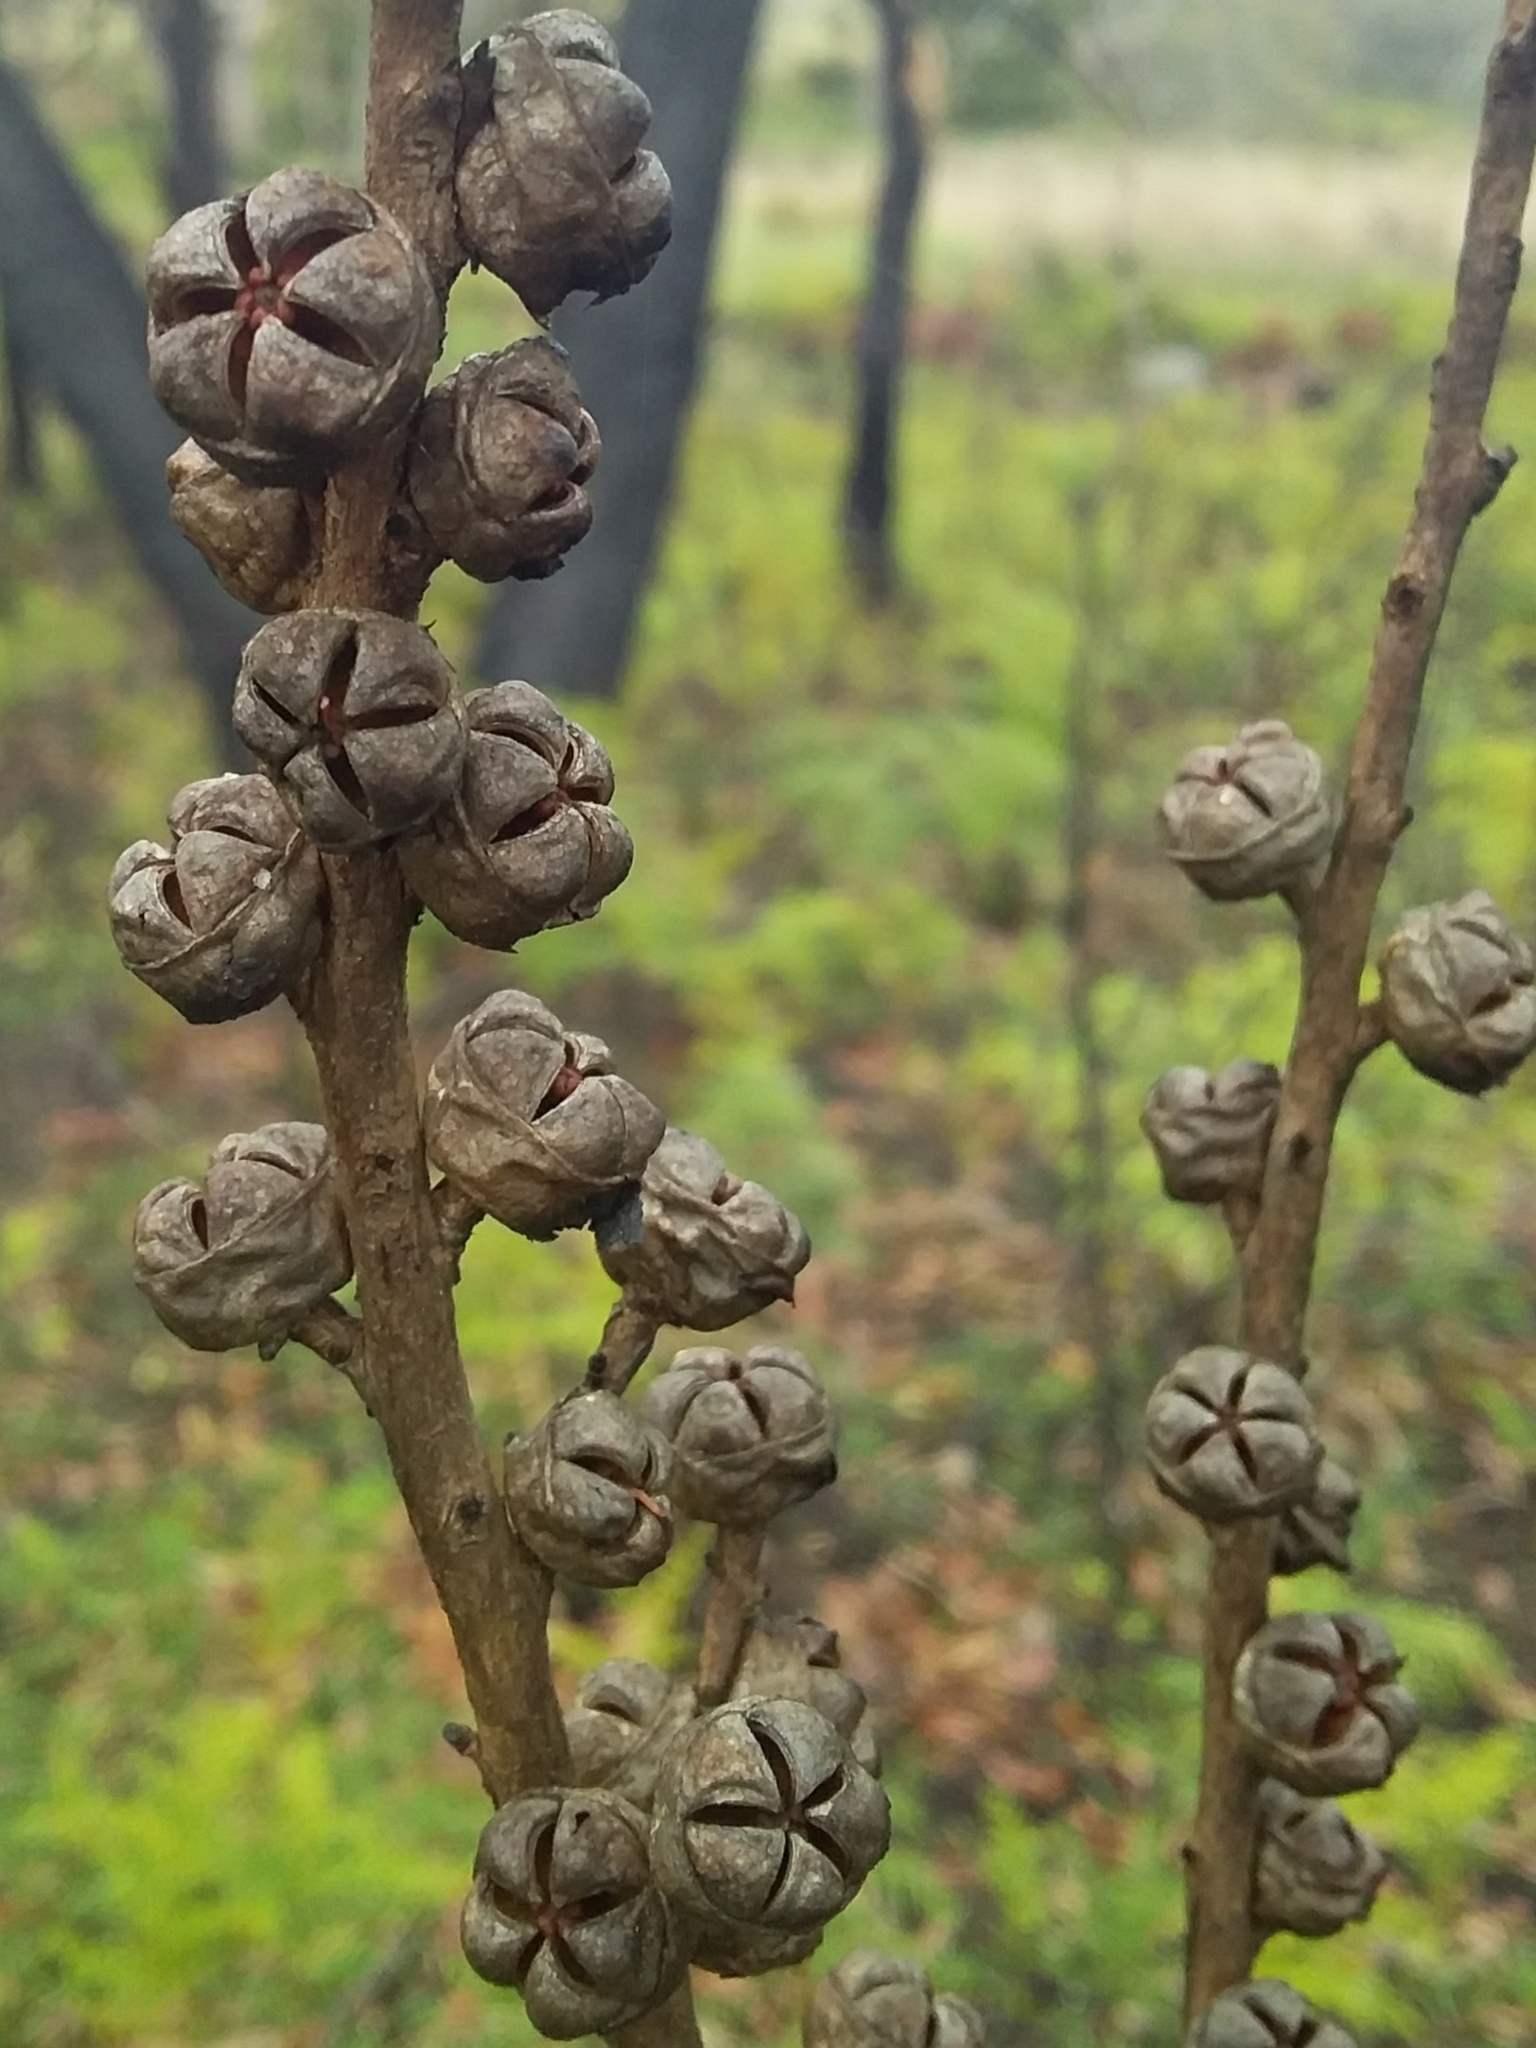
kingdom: Plantae
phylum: Tracheophyta
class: Magnoliopsida
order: Myrtales
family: Myrtaceae
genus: Leptospermum
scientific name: Leptospermum continentale
